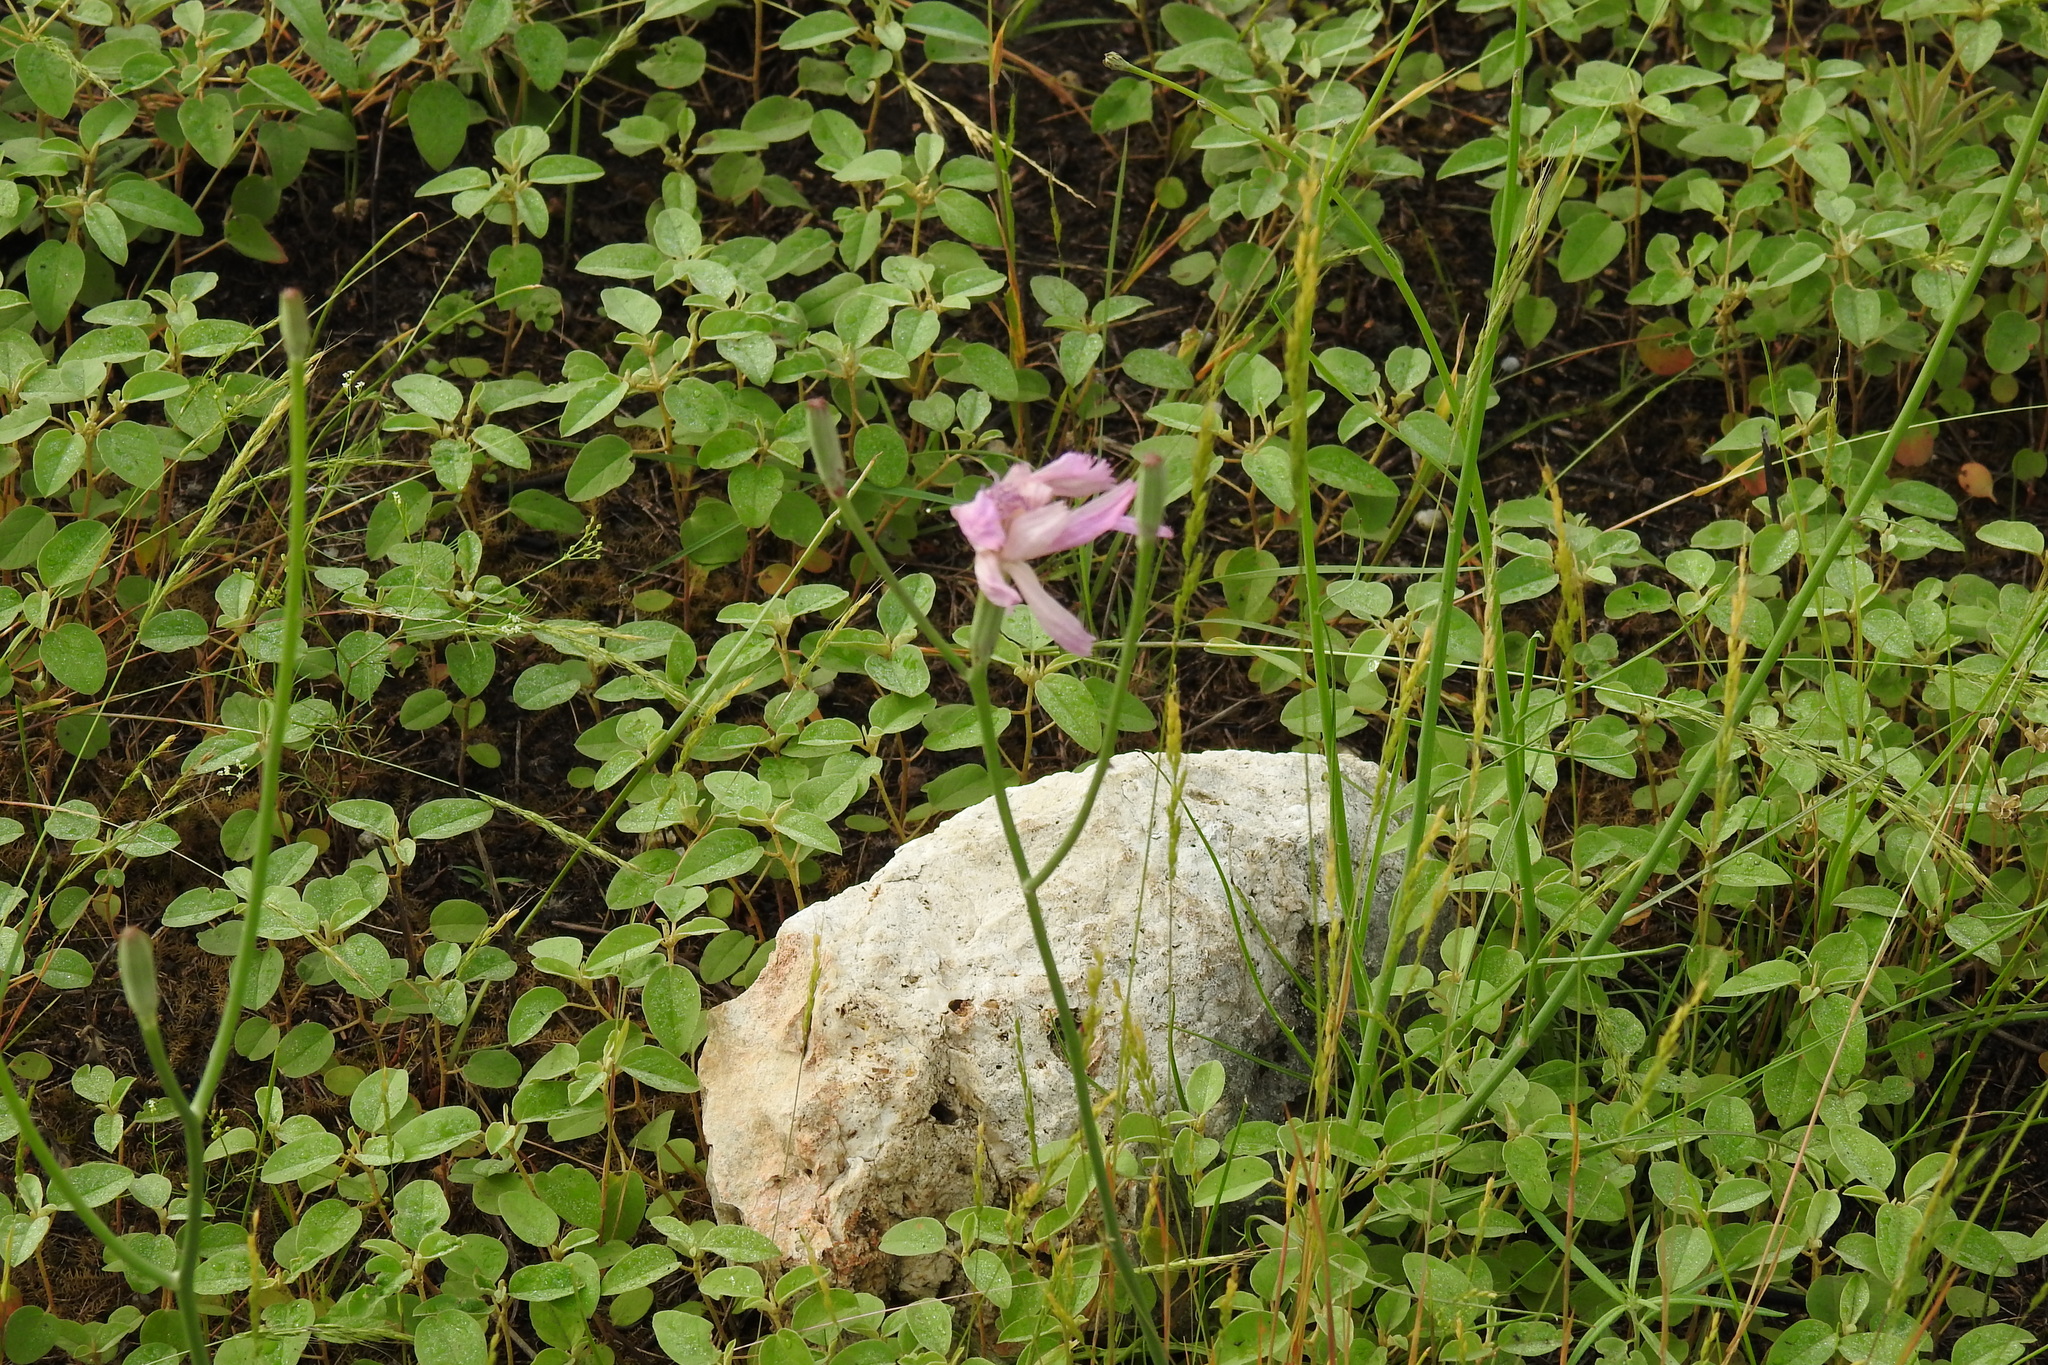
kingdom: Plantae
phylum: Tracheophyta
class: Magnoliopsida
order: Asterales
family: Asteraceae
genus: Lygodesmia
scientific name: Lygodesmia texana
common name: Texas skeleton-plant
